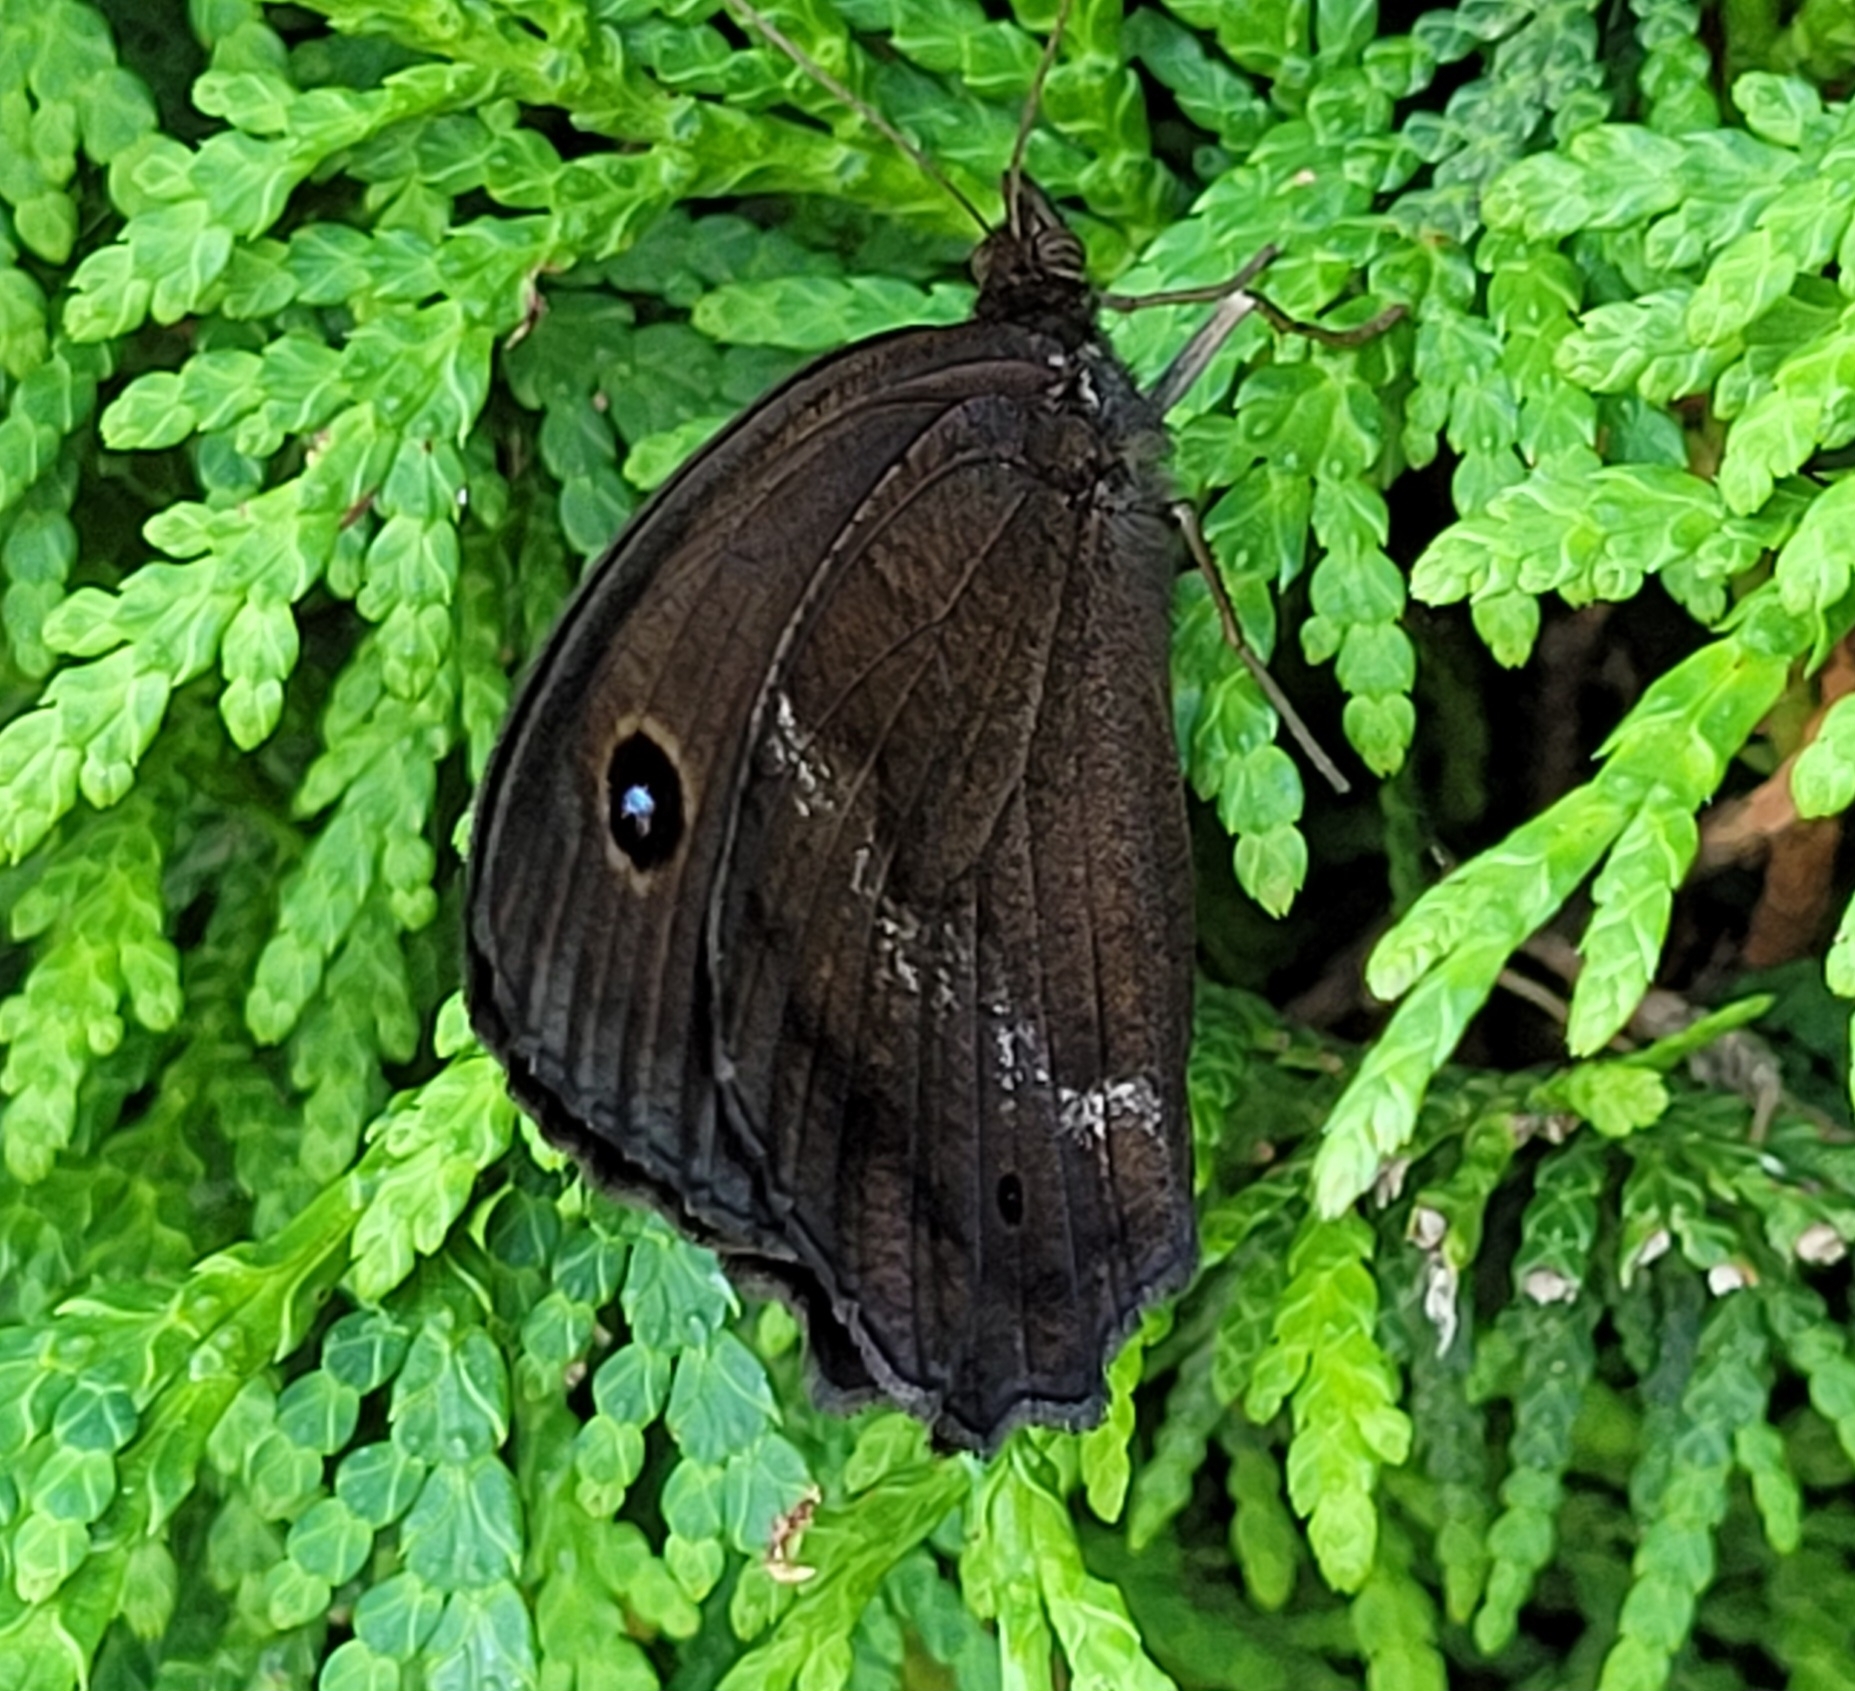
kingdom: Animalia
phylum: Arthropoda
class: Insecta
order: Lepidoptera
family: Nymphalidae
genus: Minois
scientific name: Minois dryas
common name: Dryad
